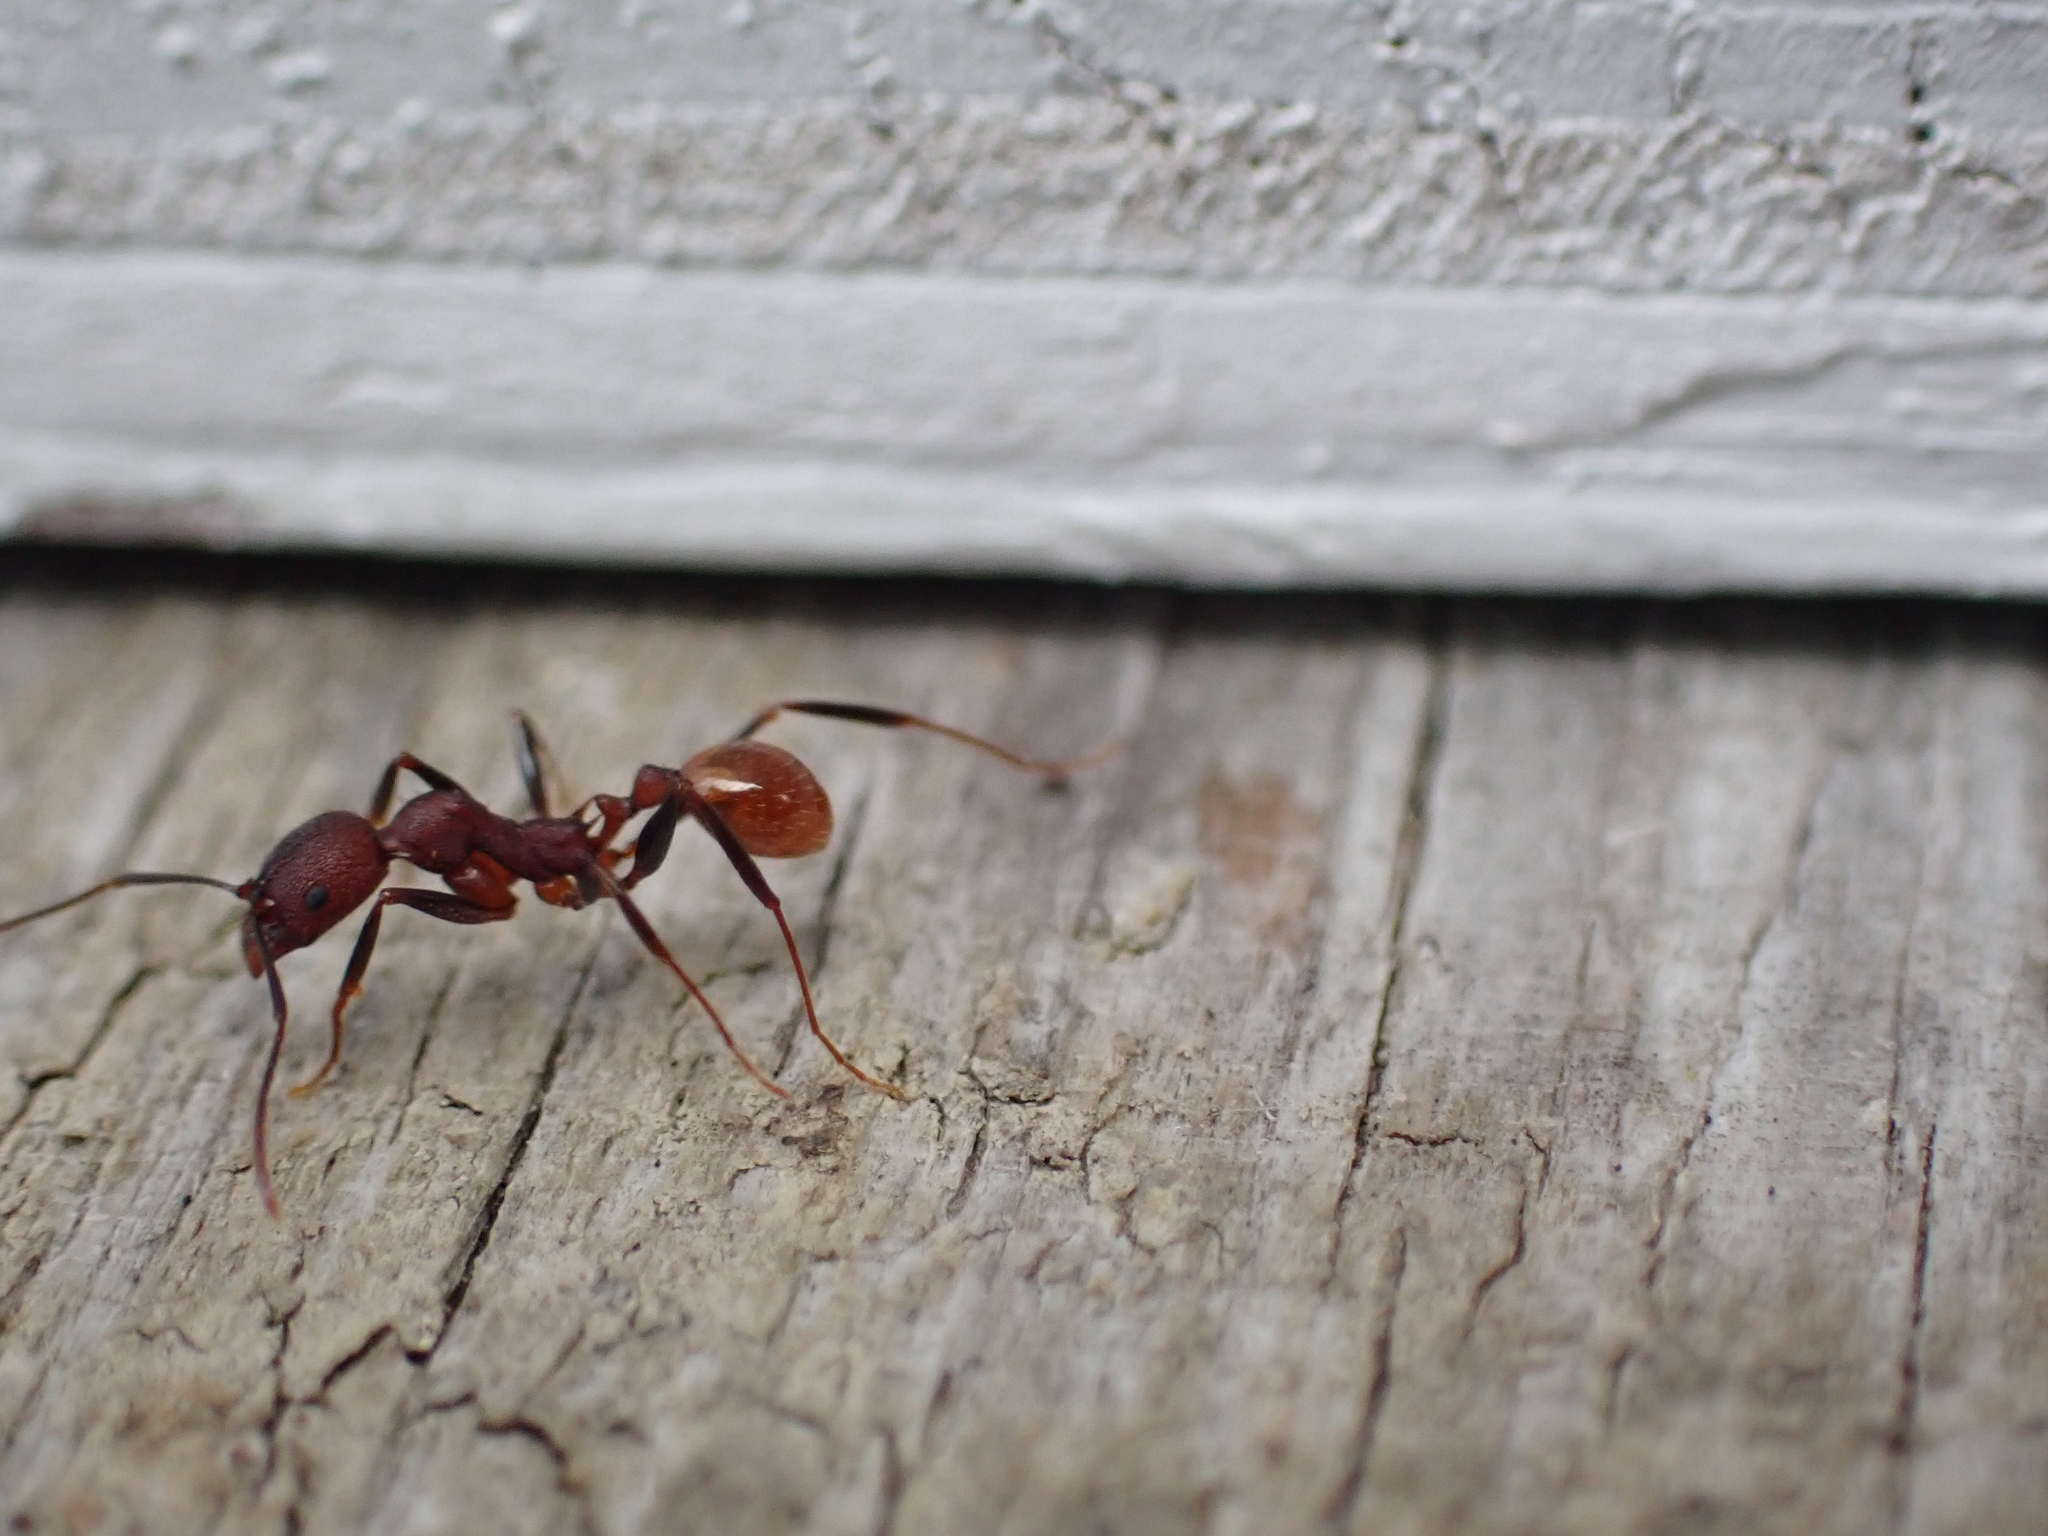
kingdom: Animalia
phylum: Arthropoda
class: Insecta
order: Hymenoptera
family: Formicidae
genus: Aphaenogaster
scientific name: Aphaenogaster lamellidens
